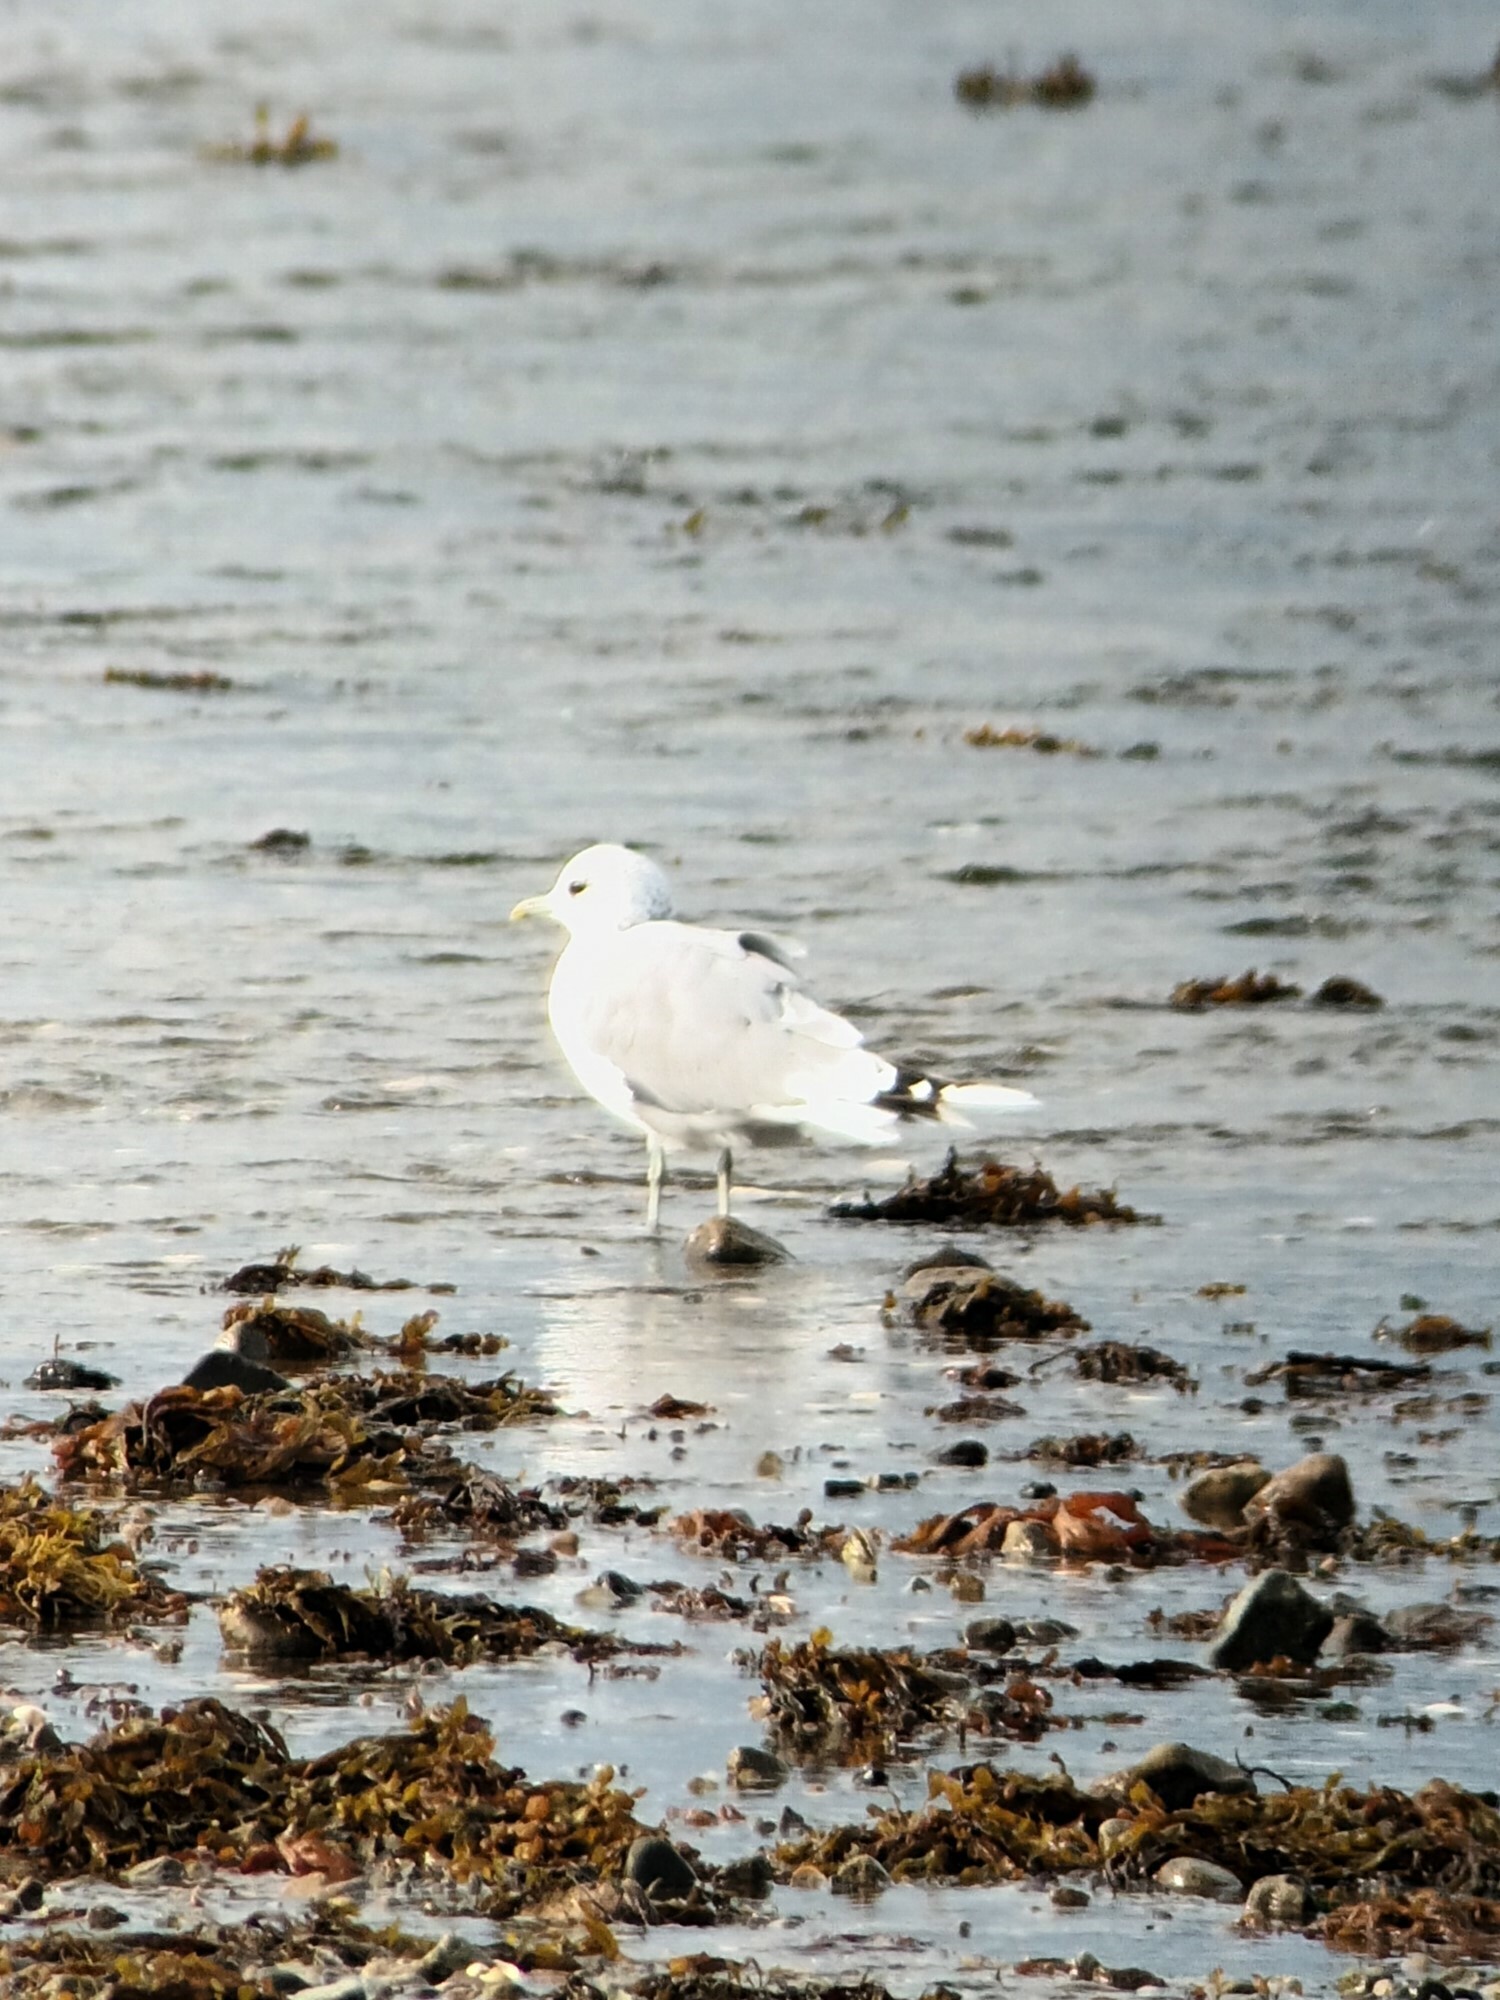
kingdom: Animalia
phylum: Chordata
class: Aves
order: Charadriiformes
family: Laridae
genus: Larus
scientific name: Larus canus
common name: Mew gull
